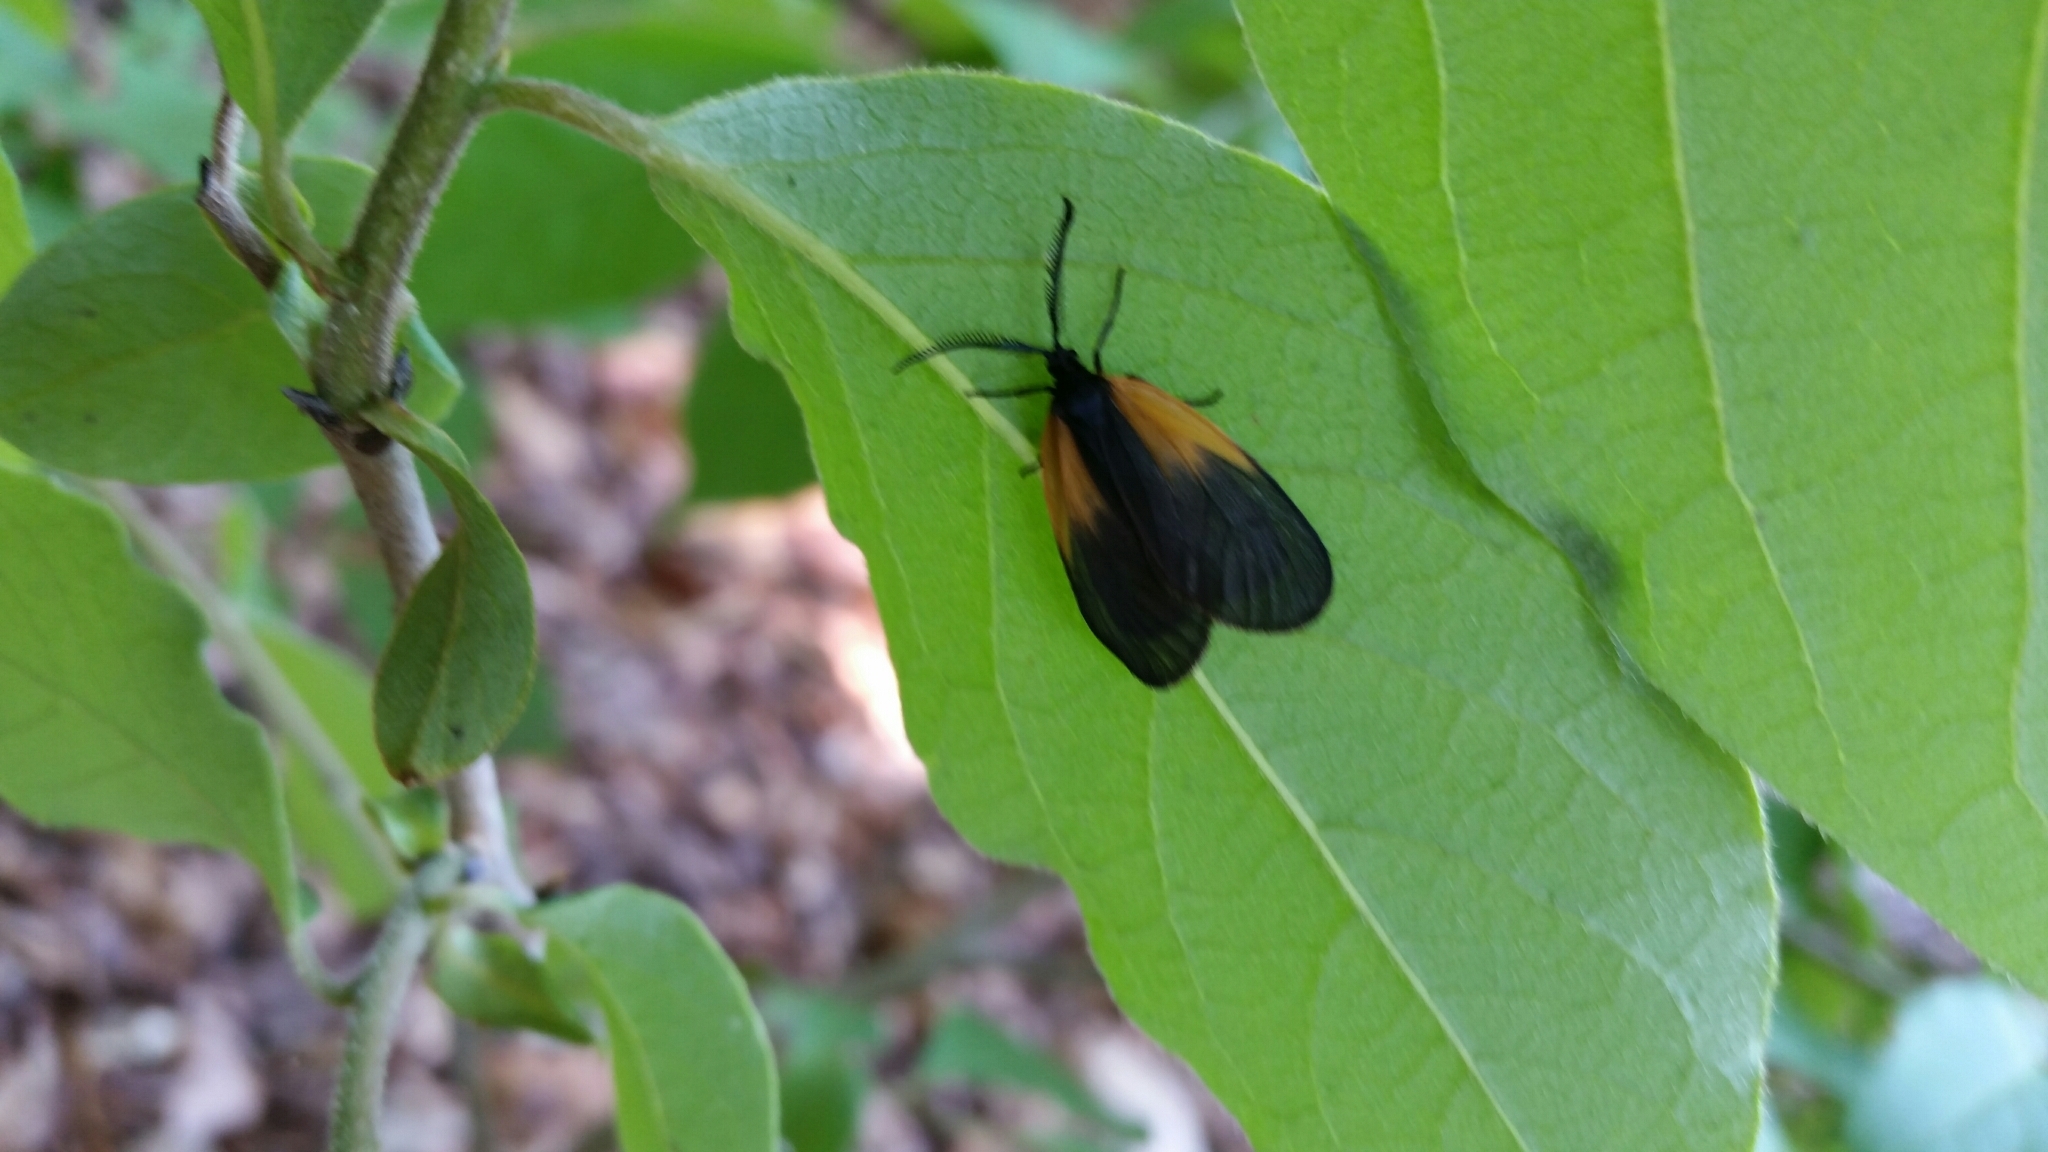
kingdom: Animalia
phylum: Arthropoda
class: Insecta
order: Lepidoptera
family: Zygaenidae
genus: Malthaca
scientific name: Malthaca dimidiata
